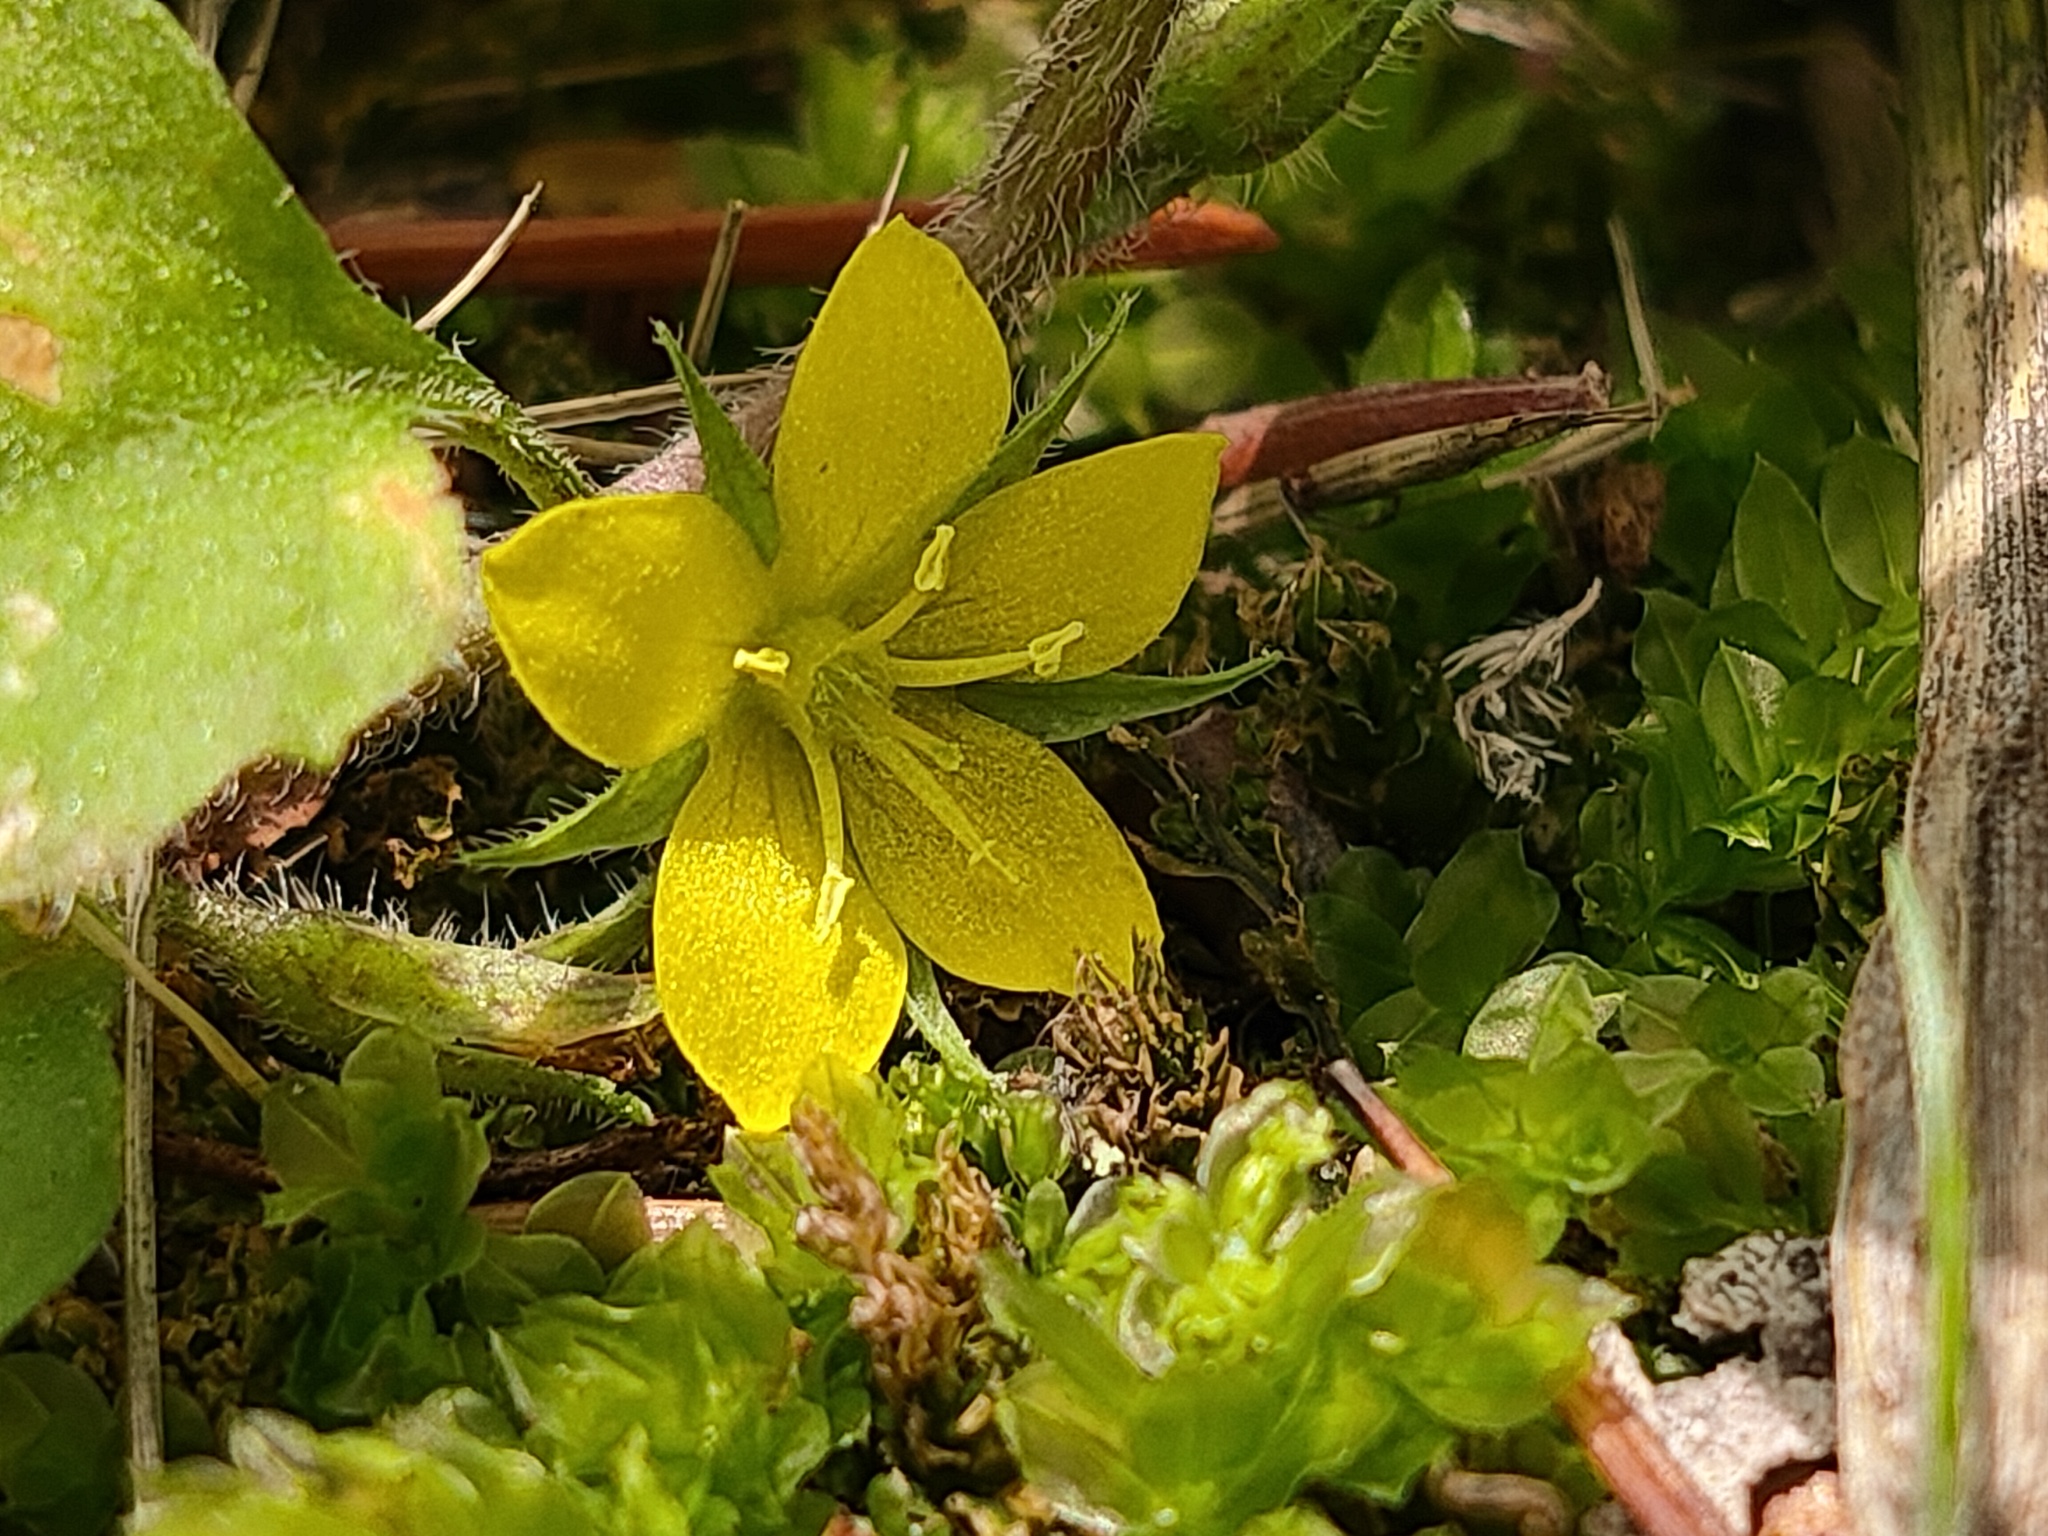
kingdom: Plantae
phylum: Tracheophyta
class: Magnoliopsida
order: Ericales
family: Primulaceae
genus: Lysimachia
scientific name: Lysimachia japonica
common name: Japanese yellow loosestrife
